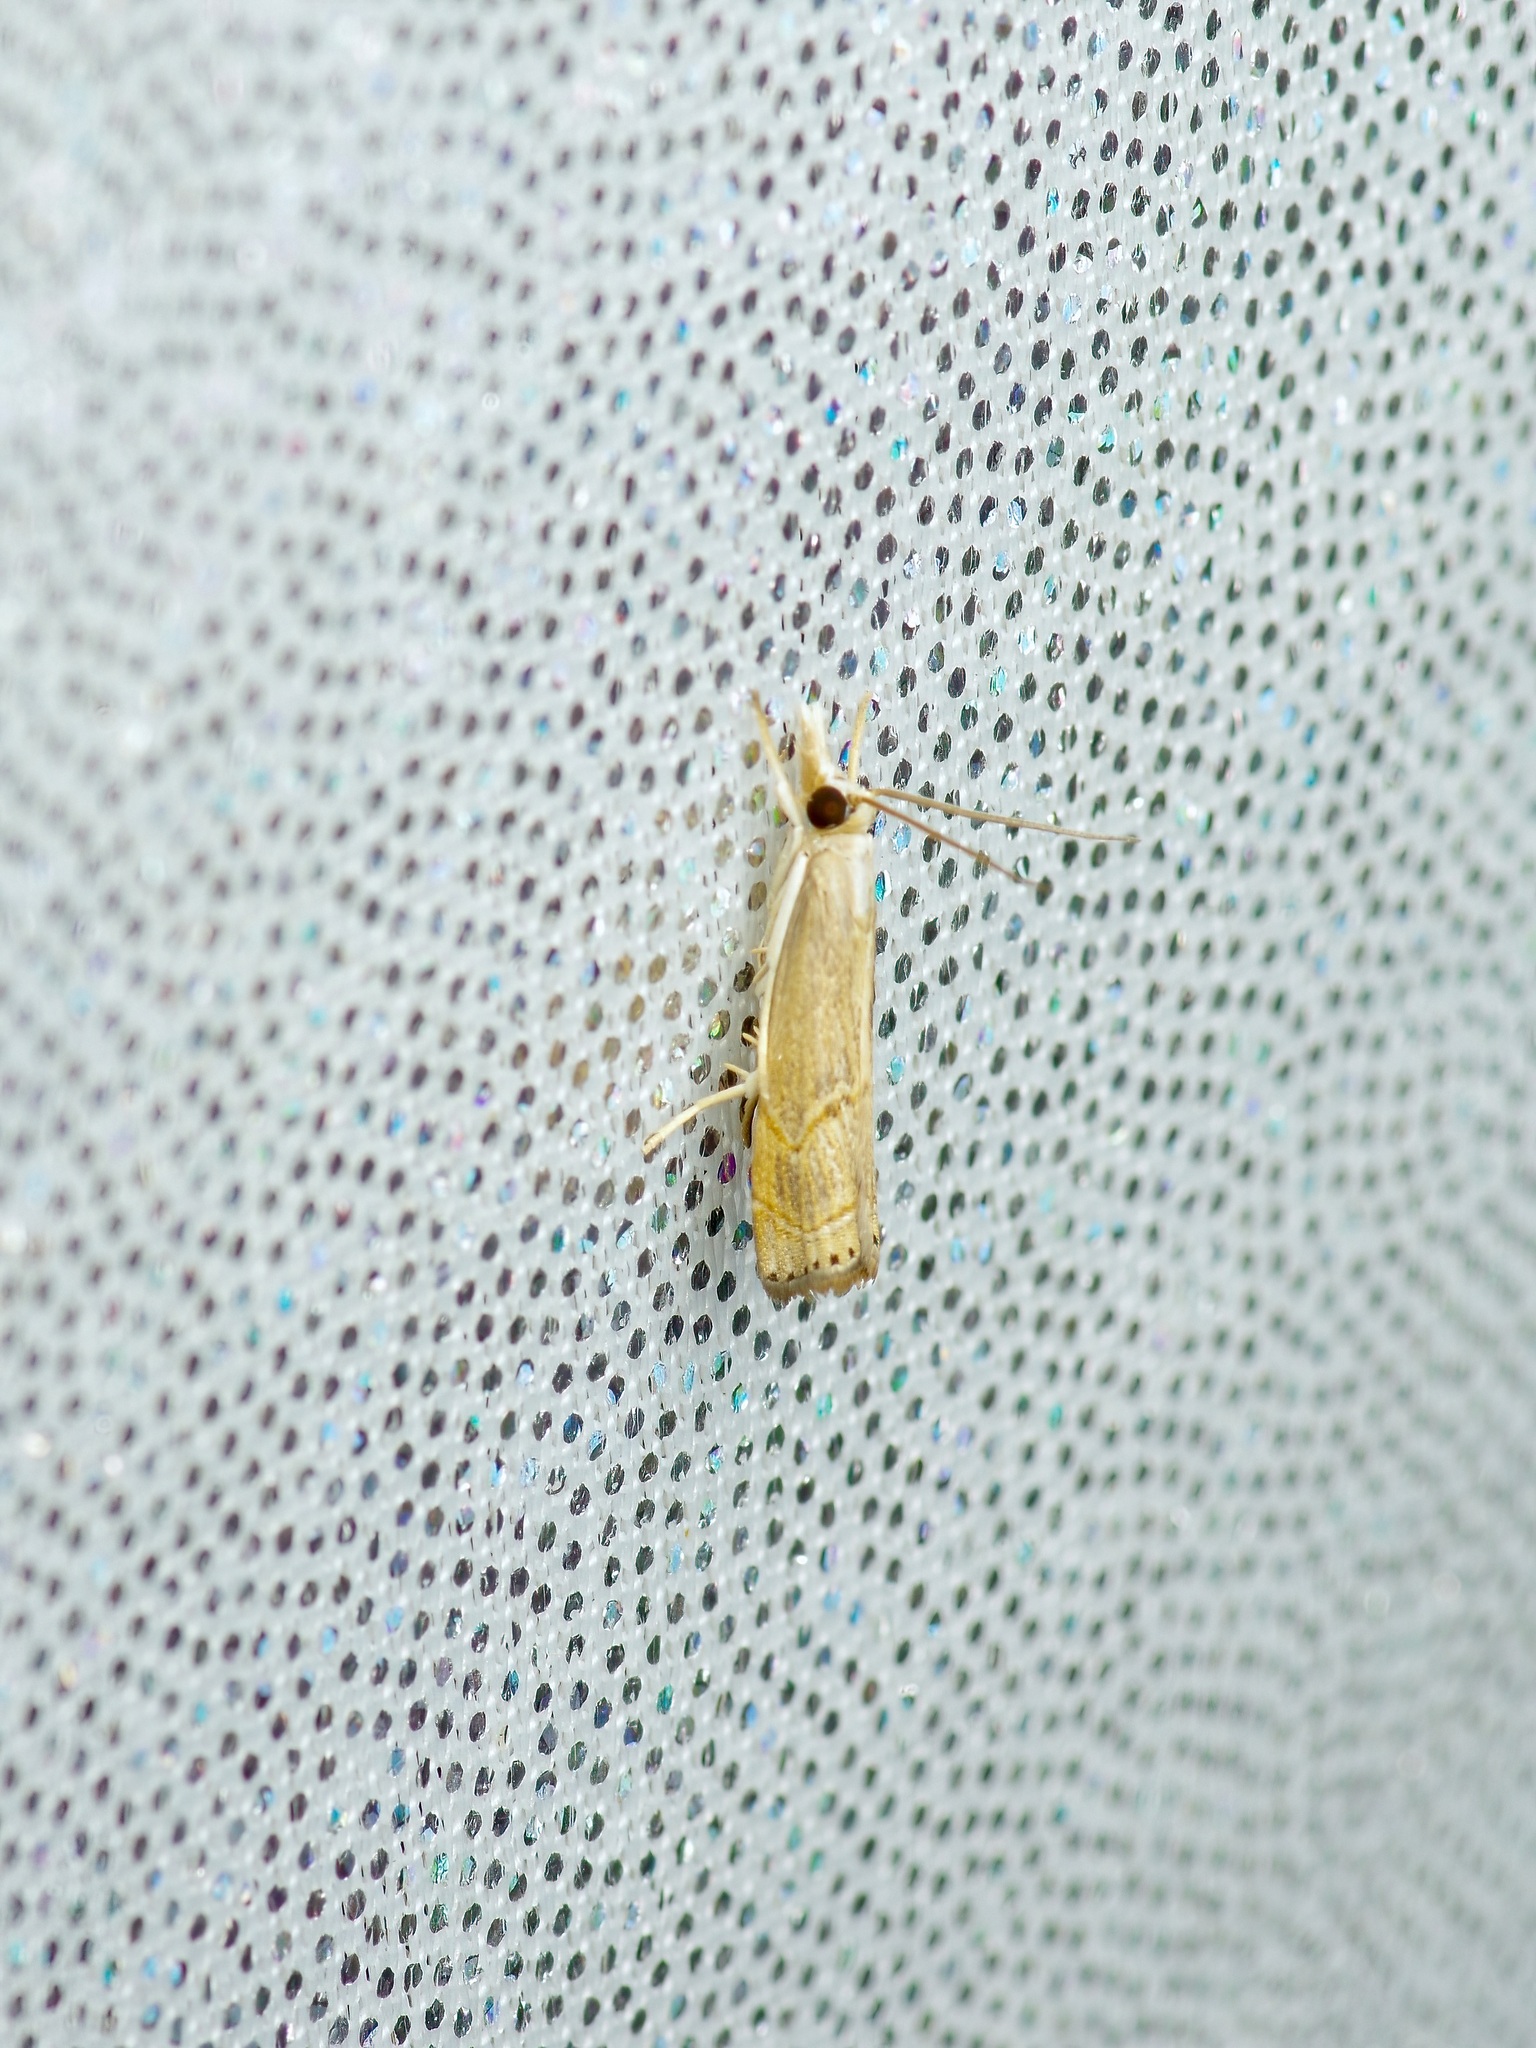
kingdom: Animalia
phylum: Arthropoda
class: Insecta
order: Lepidoptera
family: Crambidae
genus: Parapediasia
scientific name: Parapediasia decorellus
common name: Graceful grass-veneer
